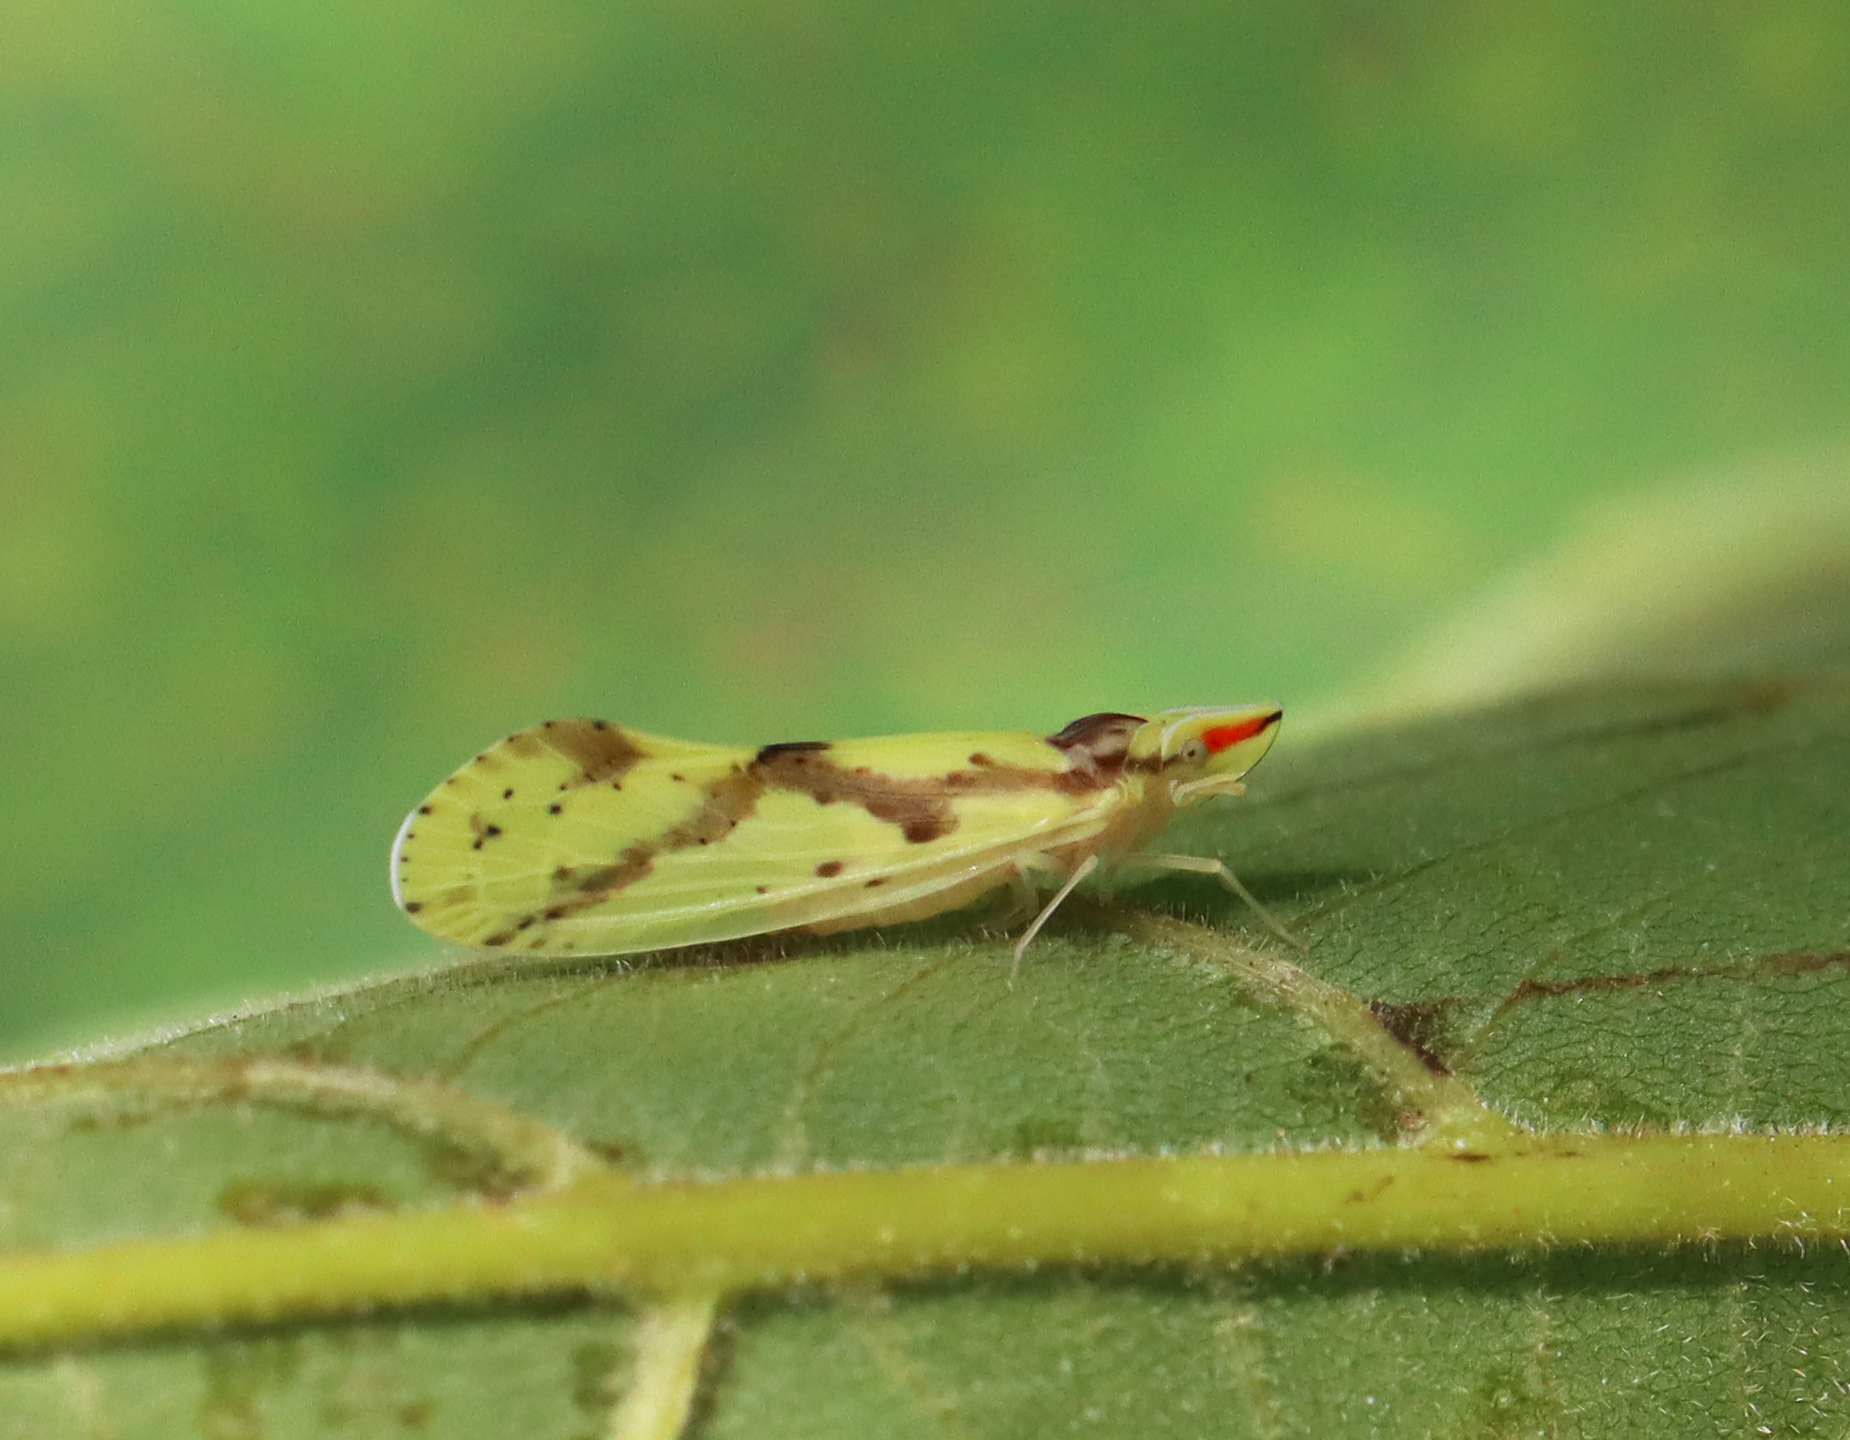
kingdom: Animalia
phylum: Arthropoda
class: Insecta
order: Hemiptera
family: Derbidae
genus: Otiocerus
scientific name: Otiocerus wolfii
